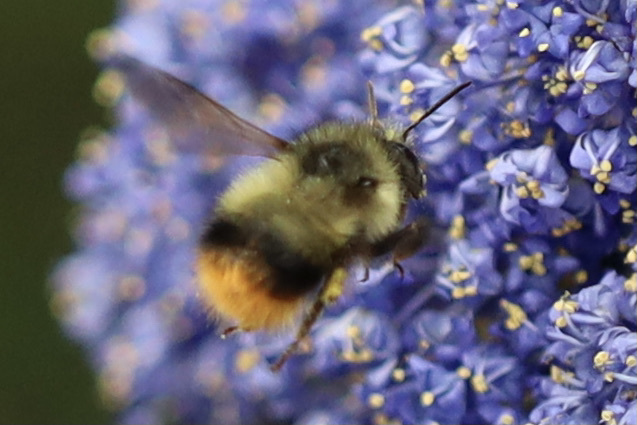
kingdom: Animalia
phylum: Arthropoda
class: Insecta
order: Hymenoptera
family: Apidae
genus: Bombus
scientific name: Bombus mixtus
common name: Fuzzy-horned bumble bee
